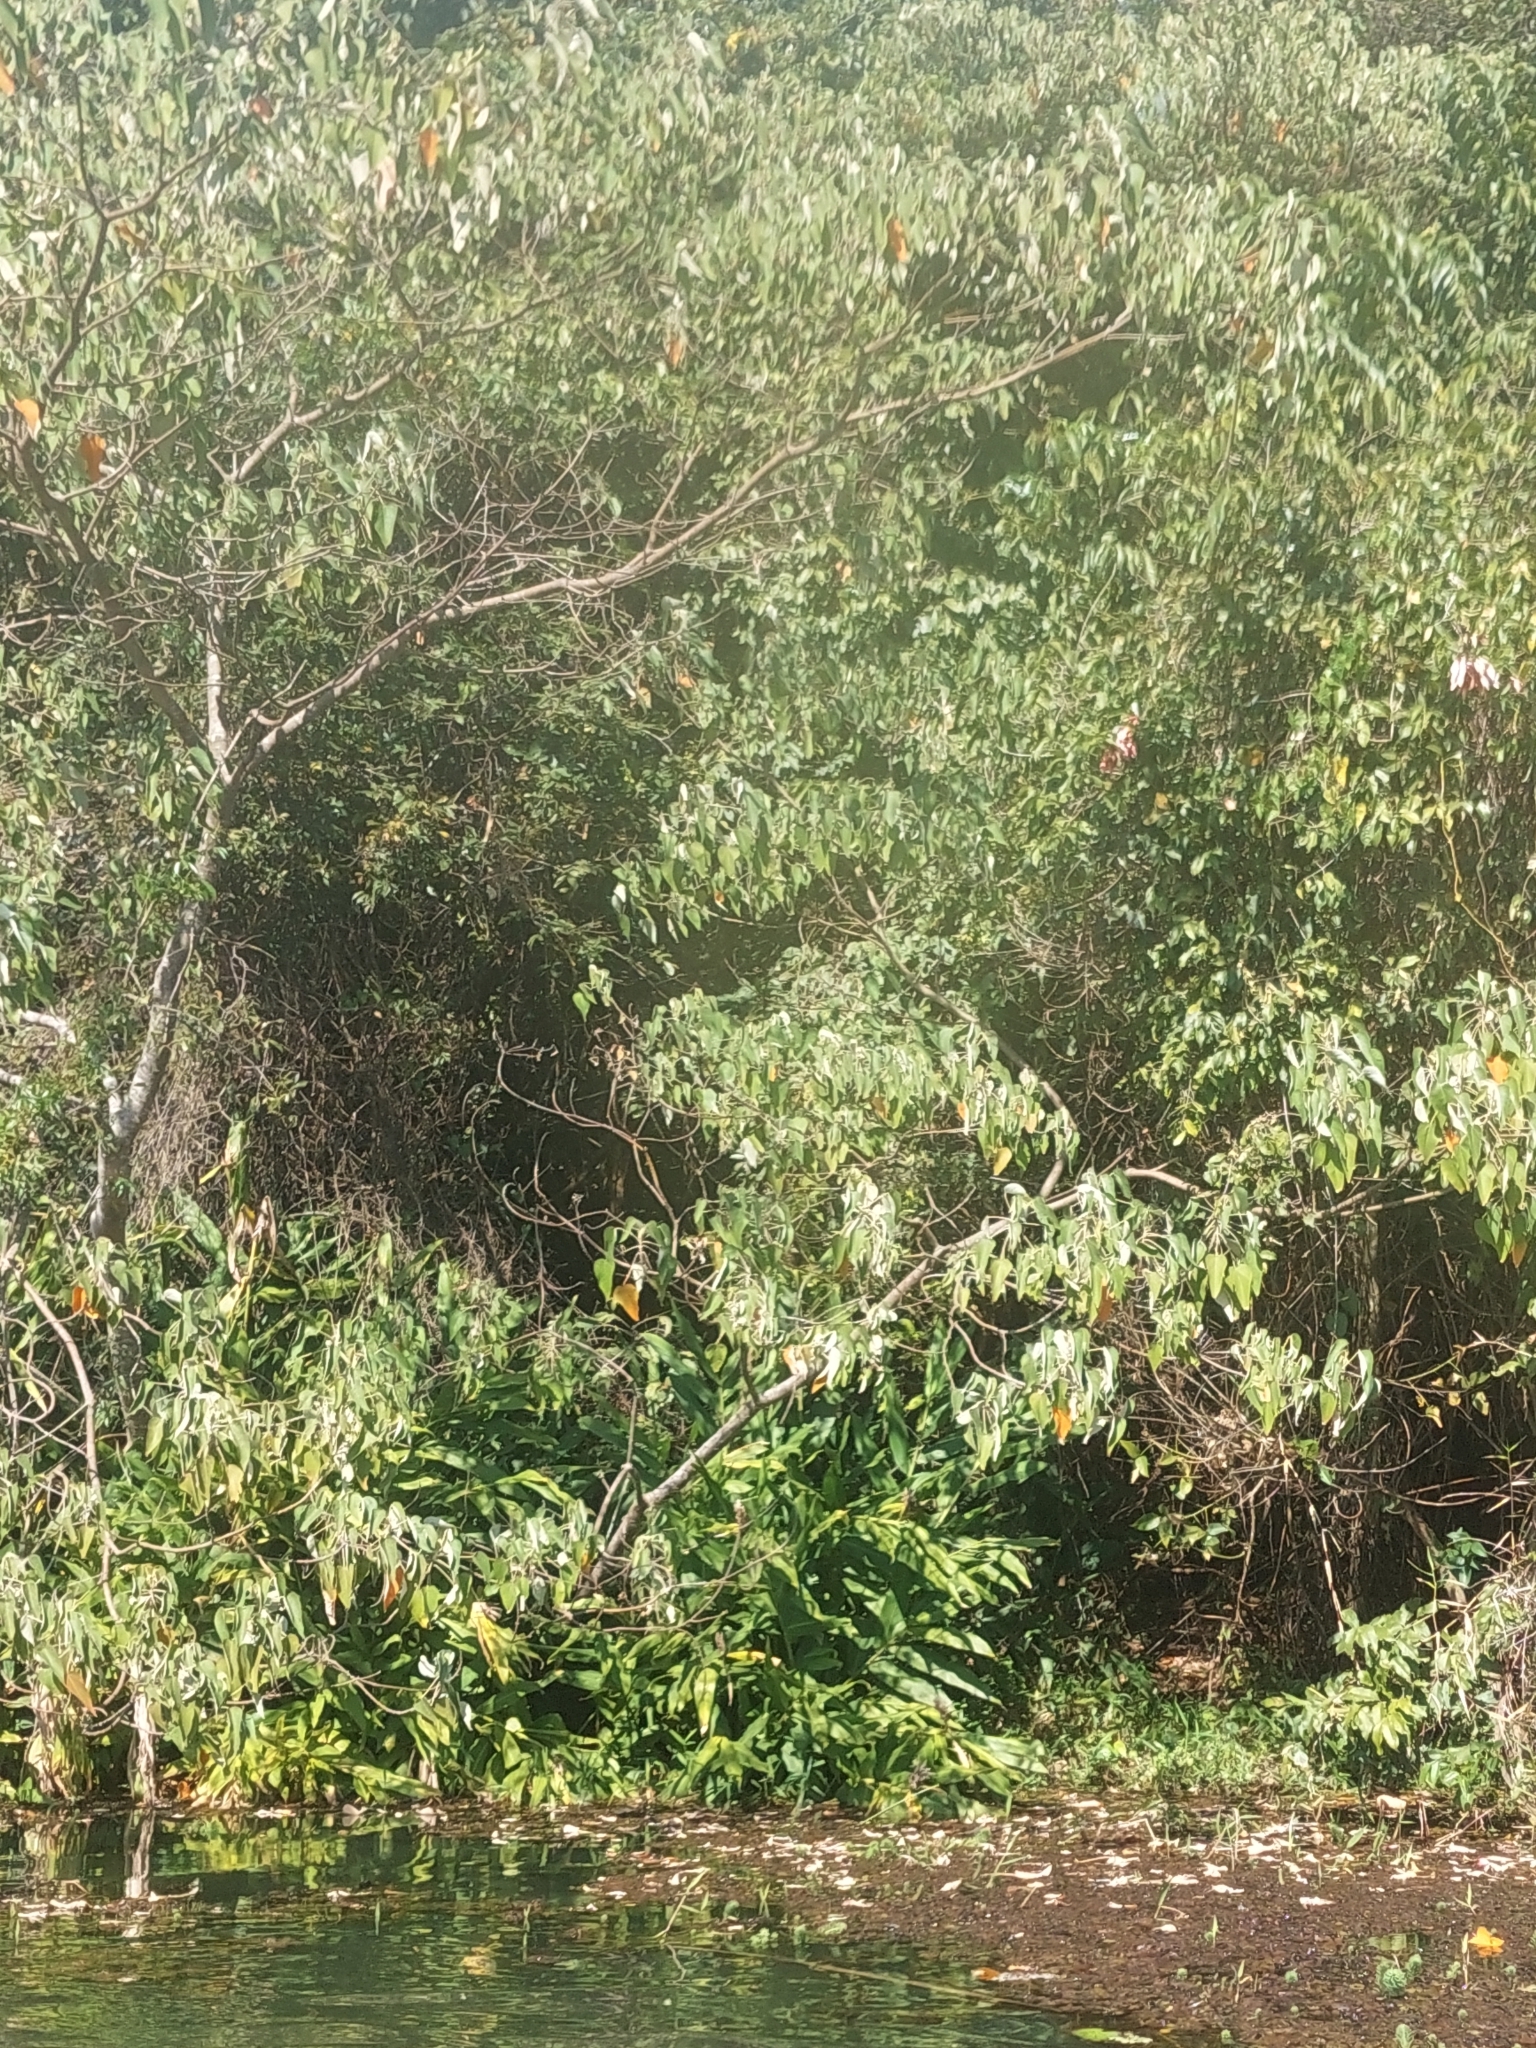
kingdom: Plantae
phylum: Tracheophyta
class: Liliopsida
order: Zingiberales
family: Zingiberaceae
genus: Hedychium
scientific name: Hedychium coronarium
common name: White garland-lily
